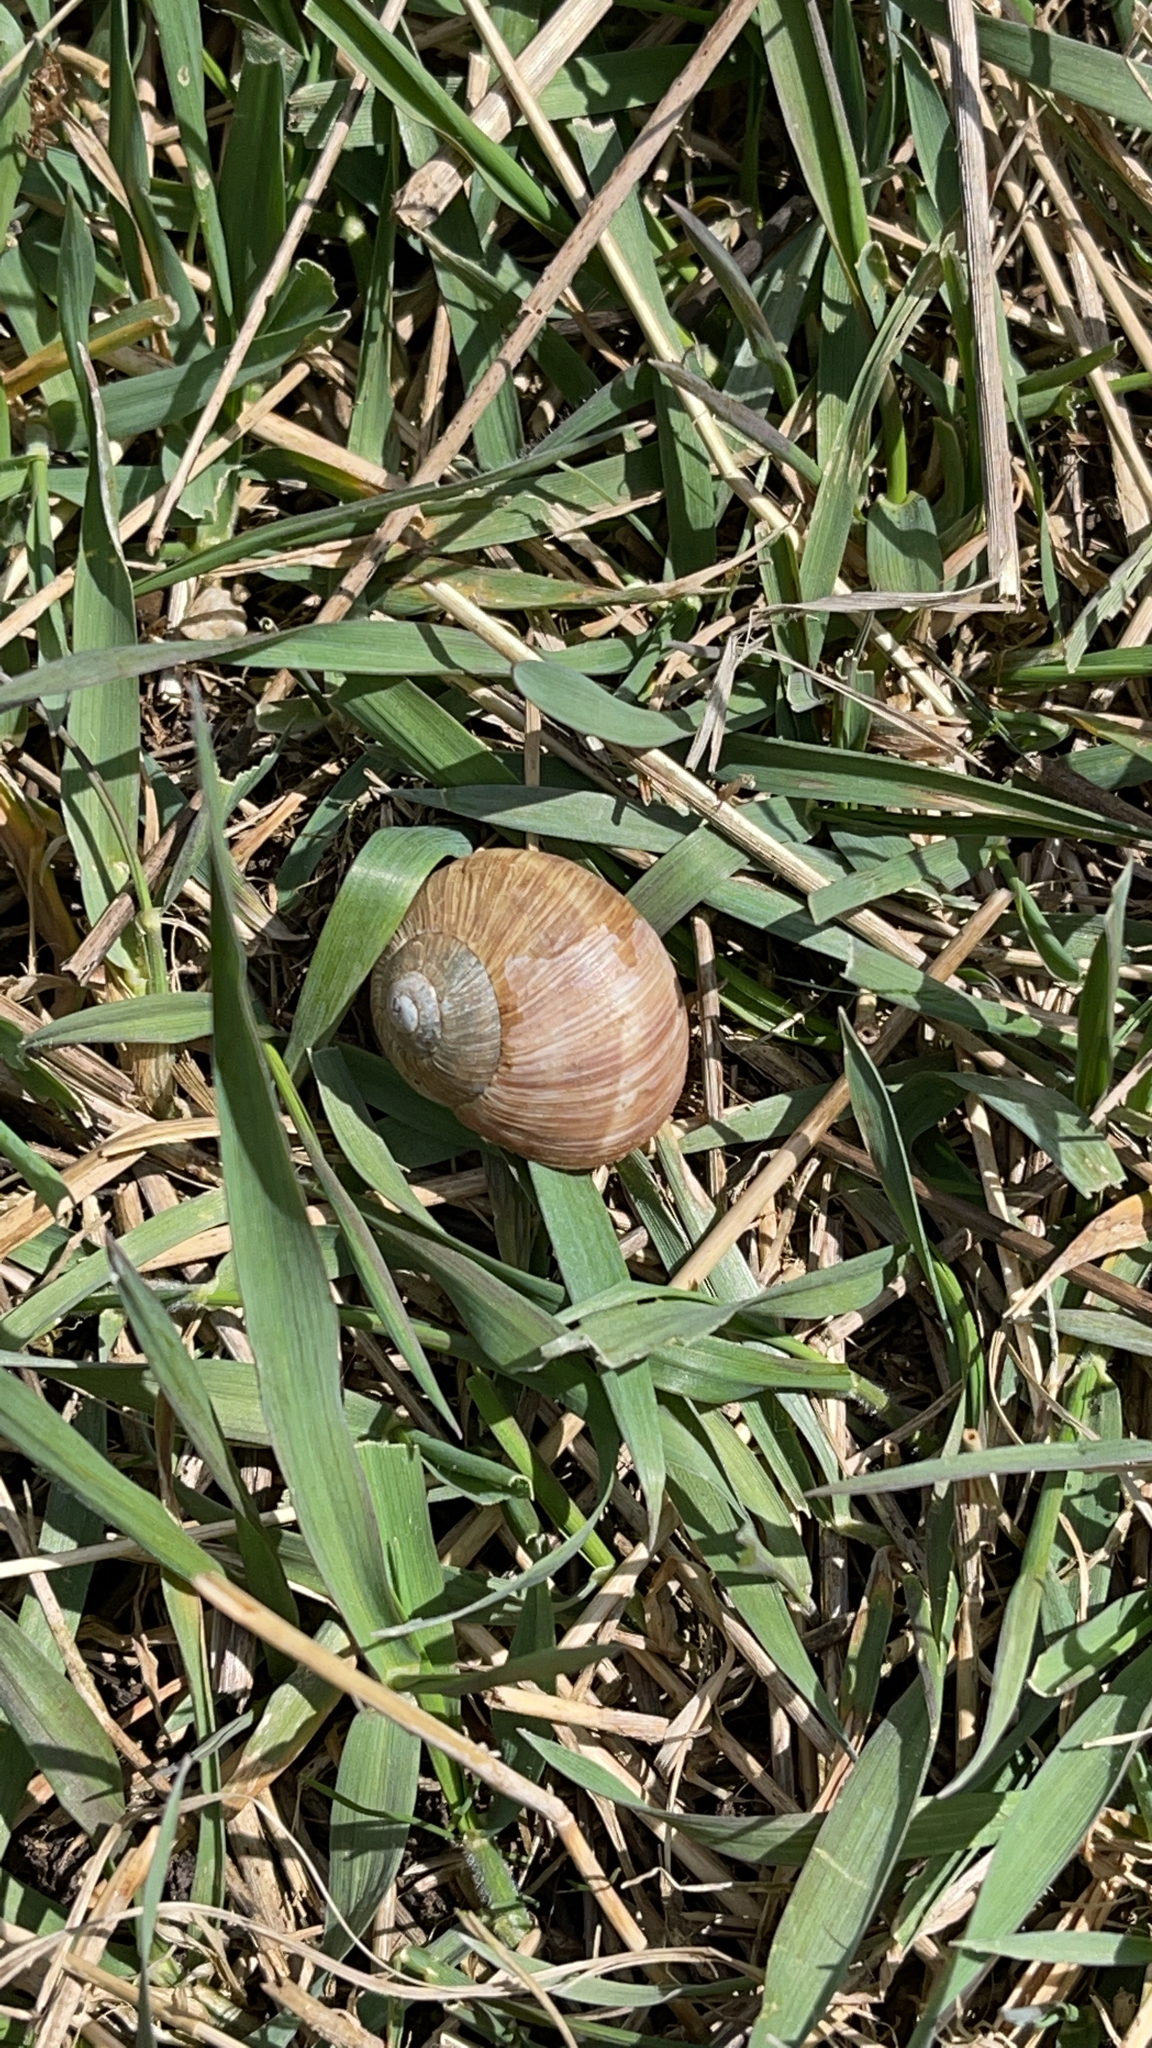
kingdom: Animalia
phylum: Mollusca
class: Gastropoda
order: Stylommatophora
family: Helicidae
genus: Helix
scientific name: Helix pomatia
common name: Roman snail
